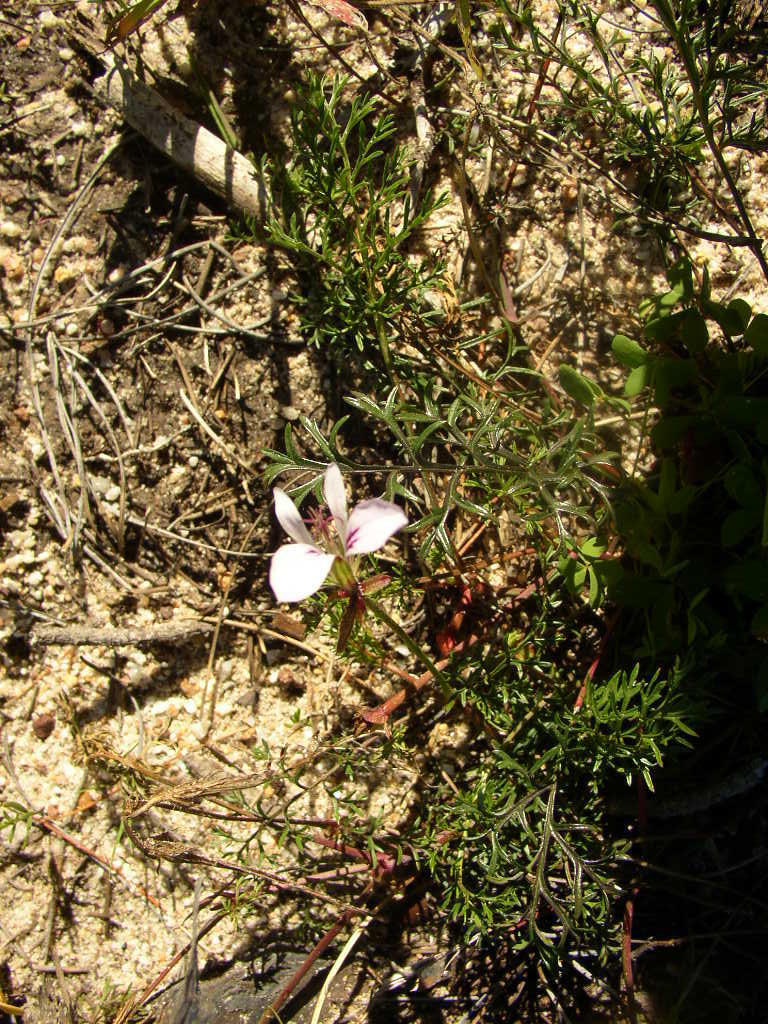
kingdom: Plantae
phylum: Tracheophyta
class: Magnoliopsida
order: Geraniales
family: Geraniaceae
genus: Pelargonium
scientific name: Pelargonium myrrhifolium
